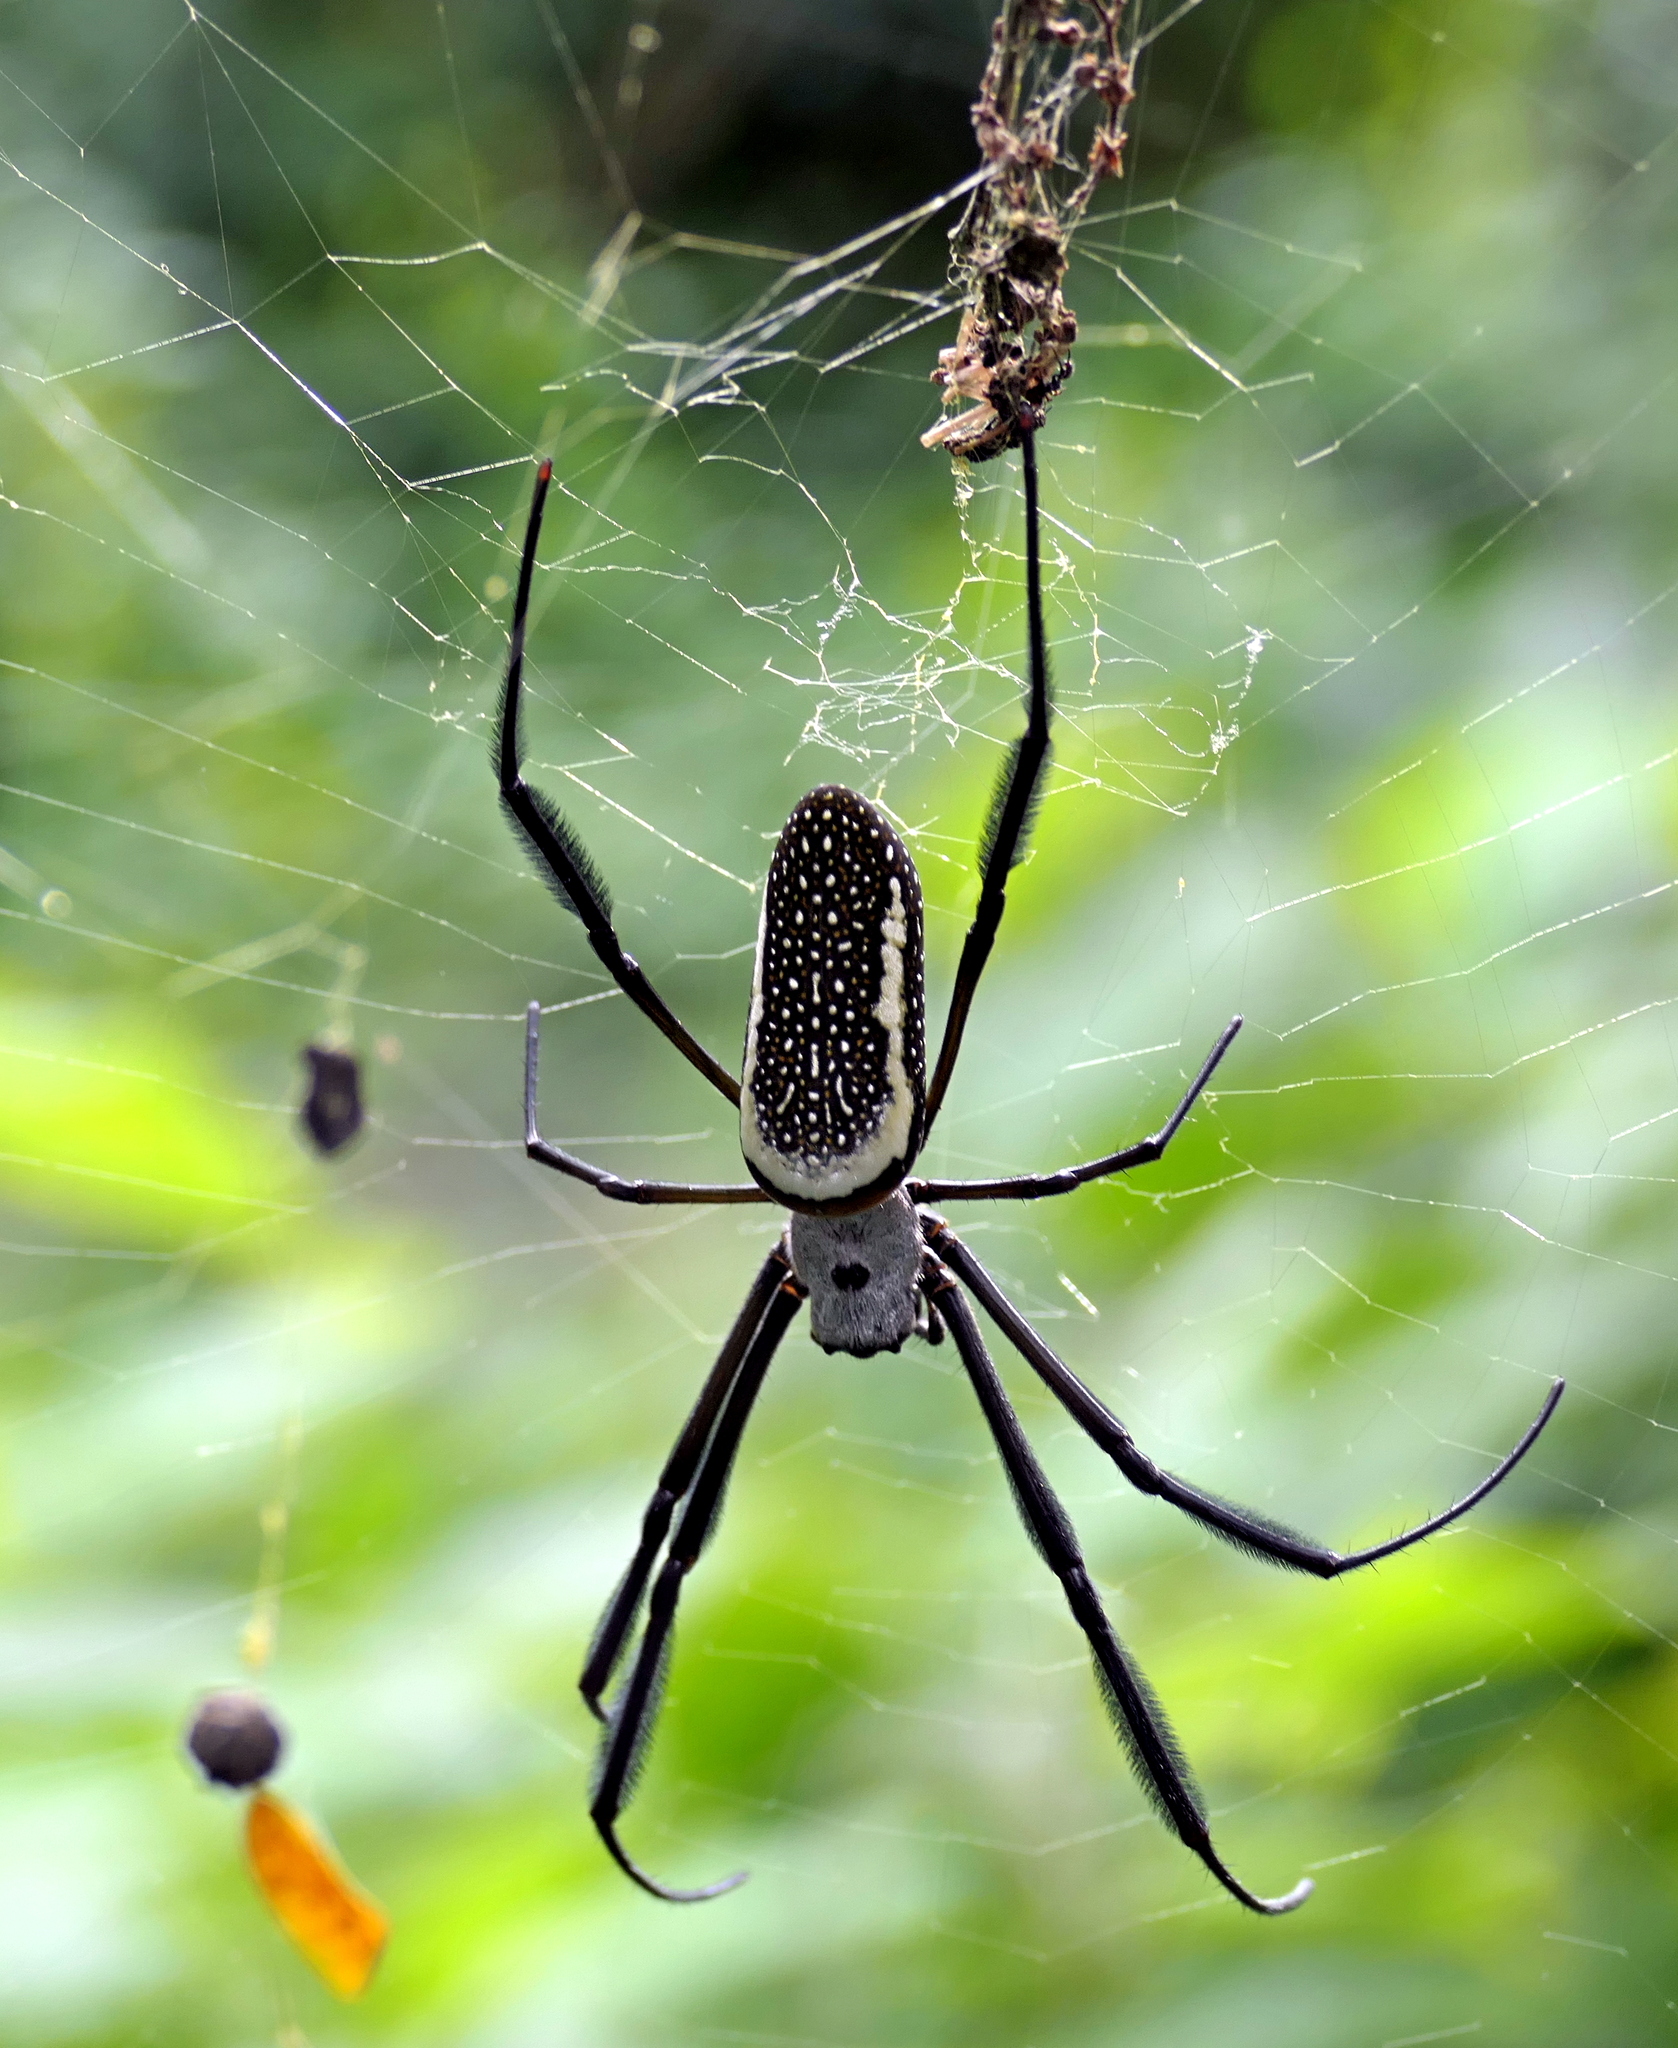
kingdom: Animalia
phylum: Arthropoda
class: Arachnida
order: Araneae
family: Araneidae
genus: Trichonephila
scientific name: Trichonephila clavipes
